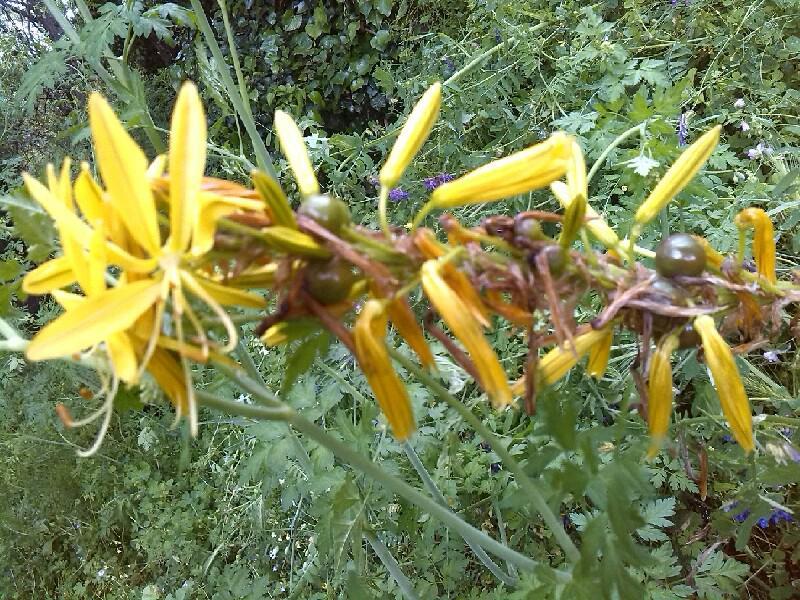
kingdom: Plantae
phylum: Tracheophyta
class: Liliopsida
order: Asparagales
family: Asphodelaceae
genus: Asphodeline
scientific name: Asphodeline lutea
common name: Yellow asphodel
